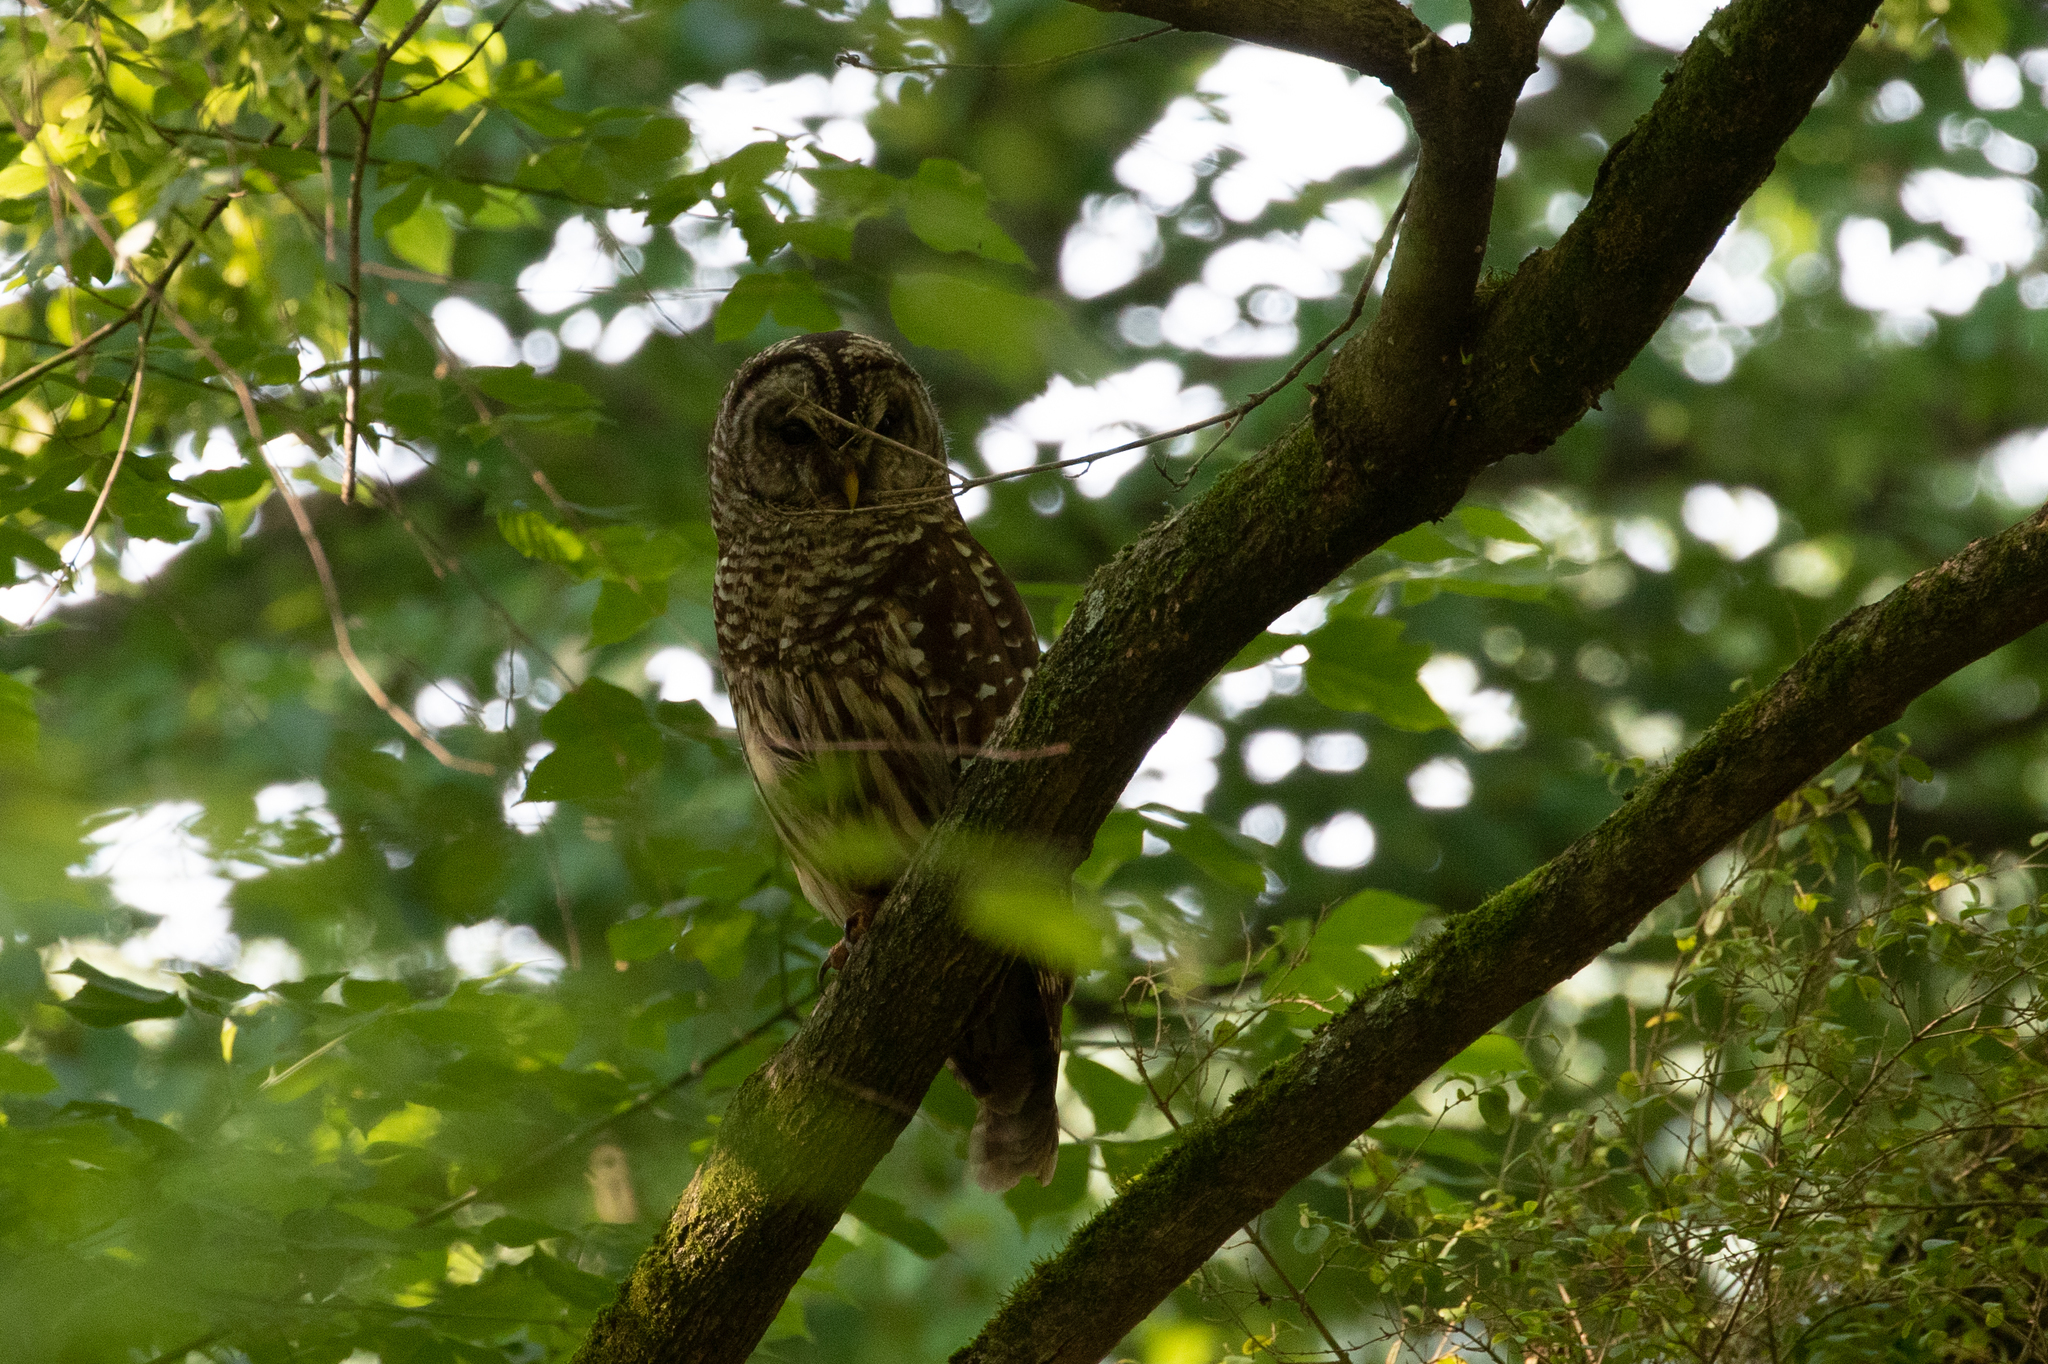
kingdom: Animalia
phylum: Chordata
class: Aves
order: Strigiformes
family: Strigidae
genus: Strix
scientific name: Strix varia
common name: Barred owl
